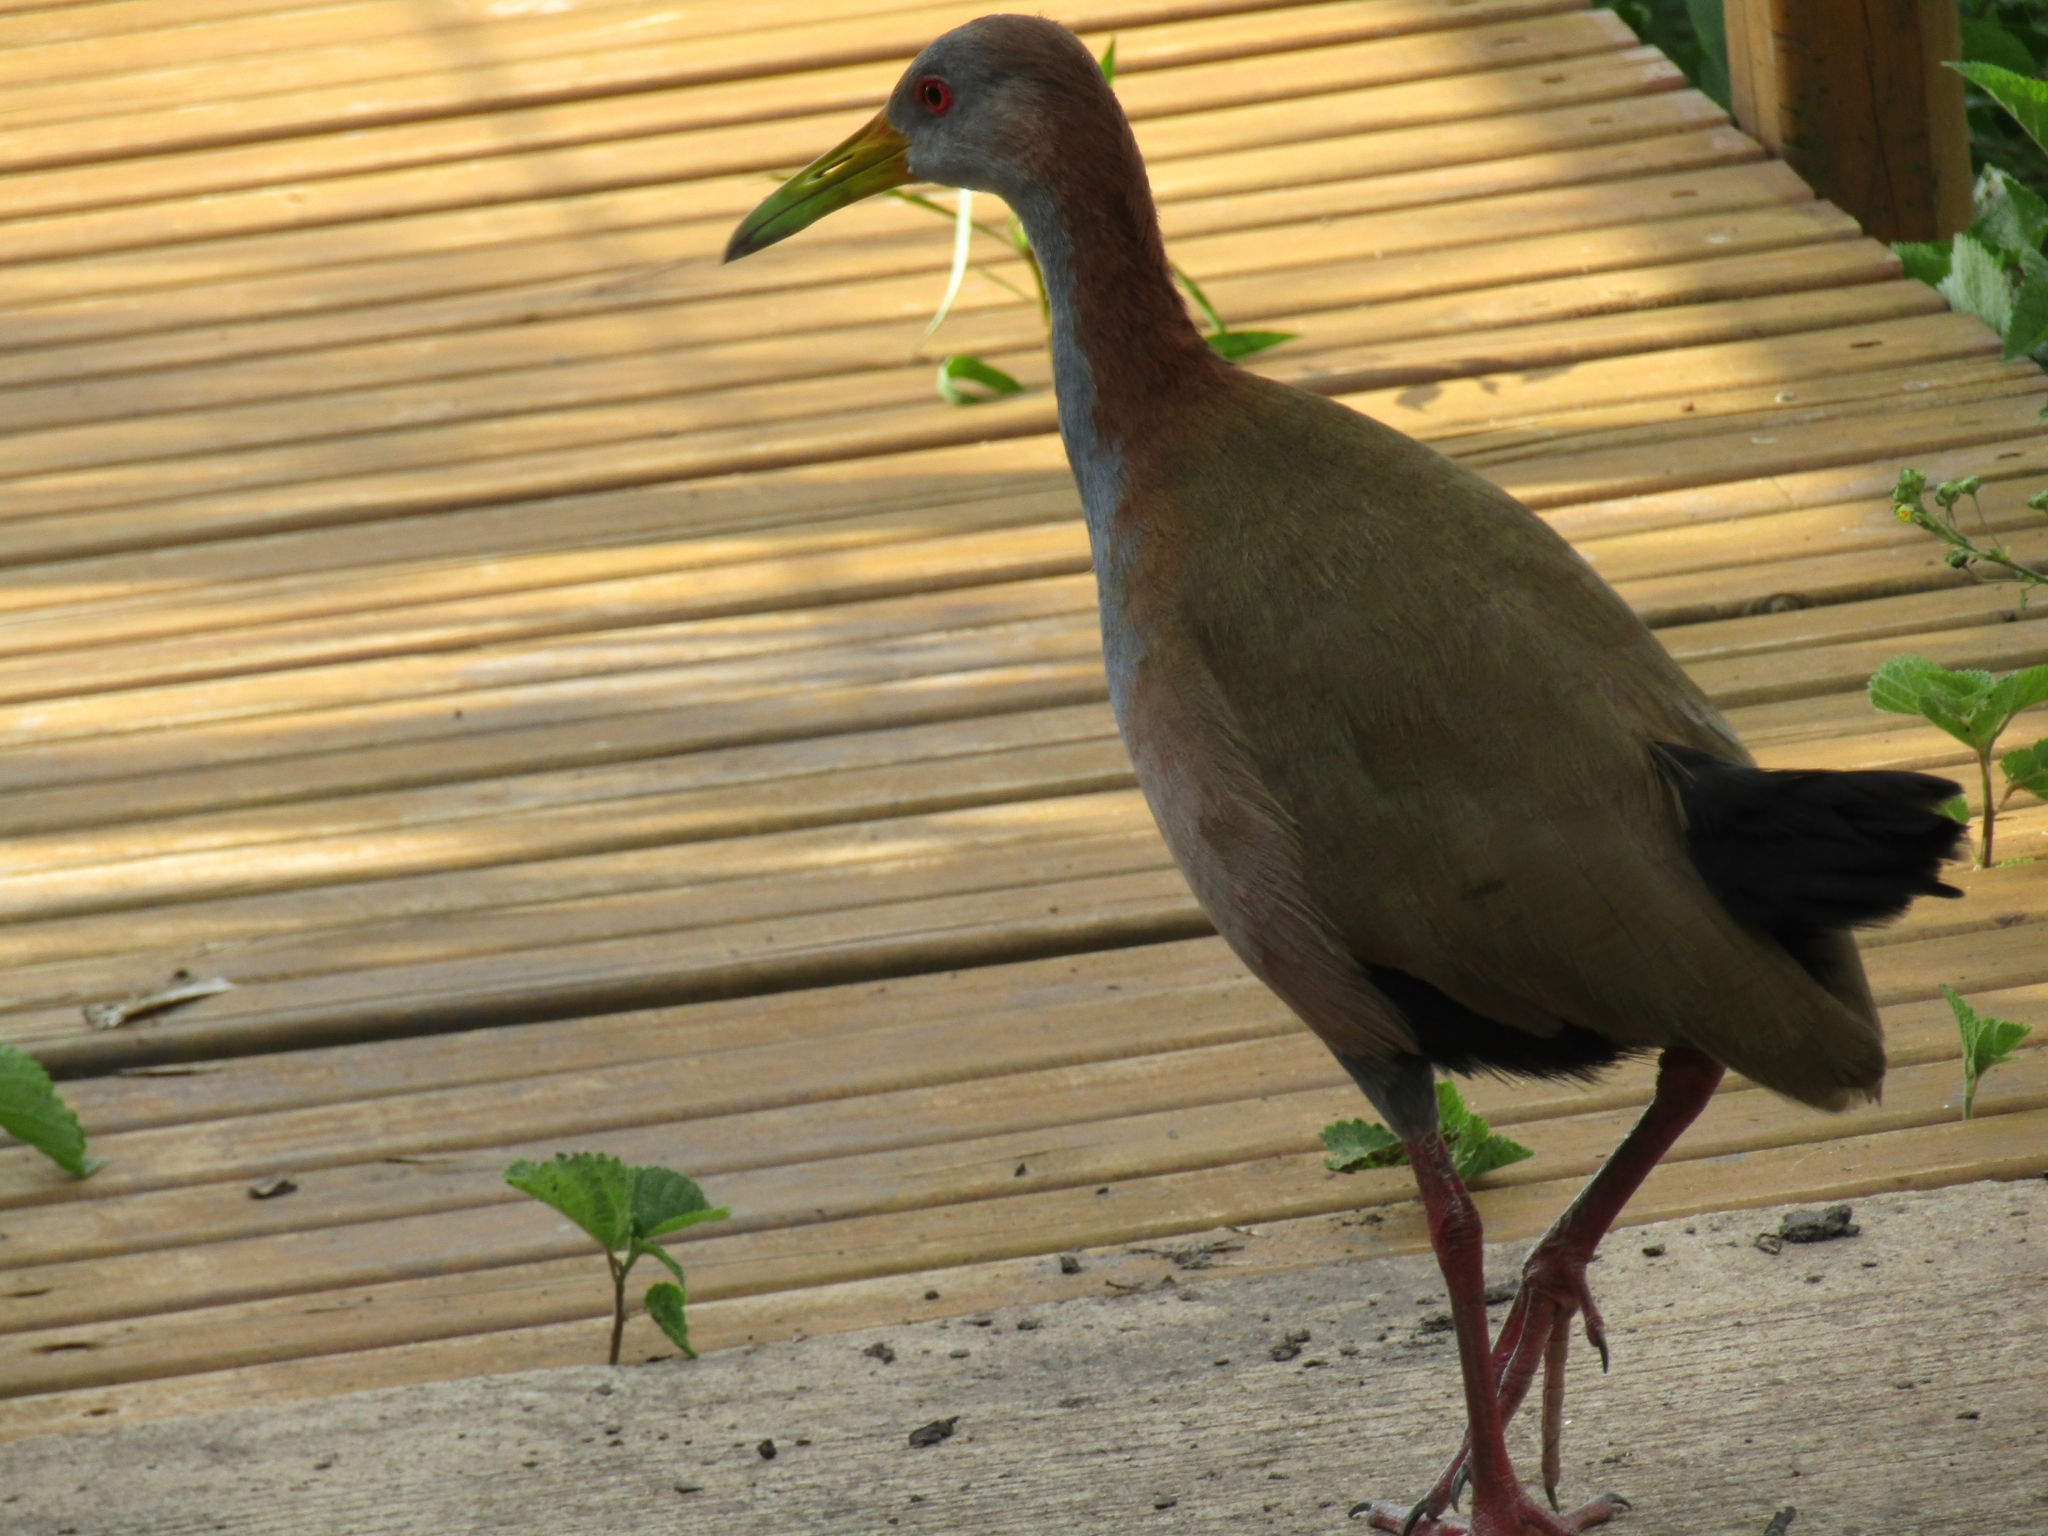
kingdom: Animalia
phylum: Chordata
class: Aves
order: Gruiformes
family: Rallidae
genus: Aramides
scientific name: Aramides ypecaha
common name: Giant wood rail
